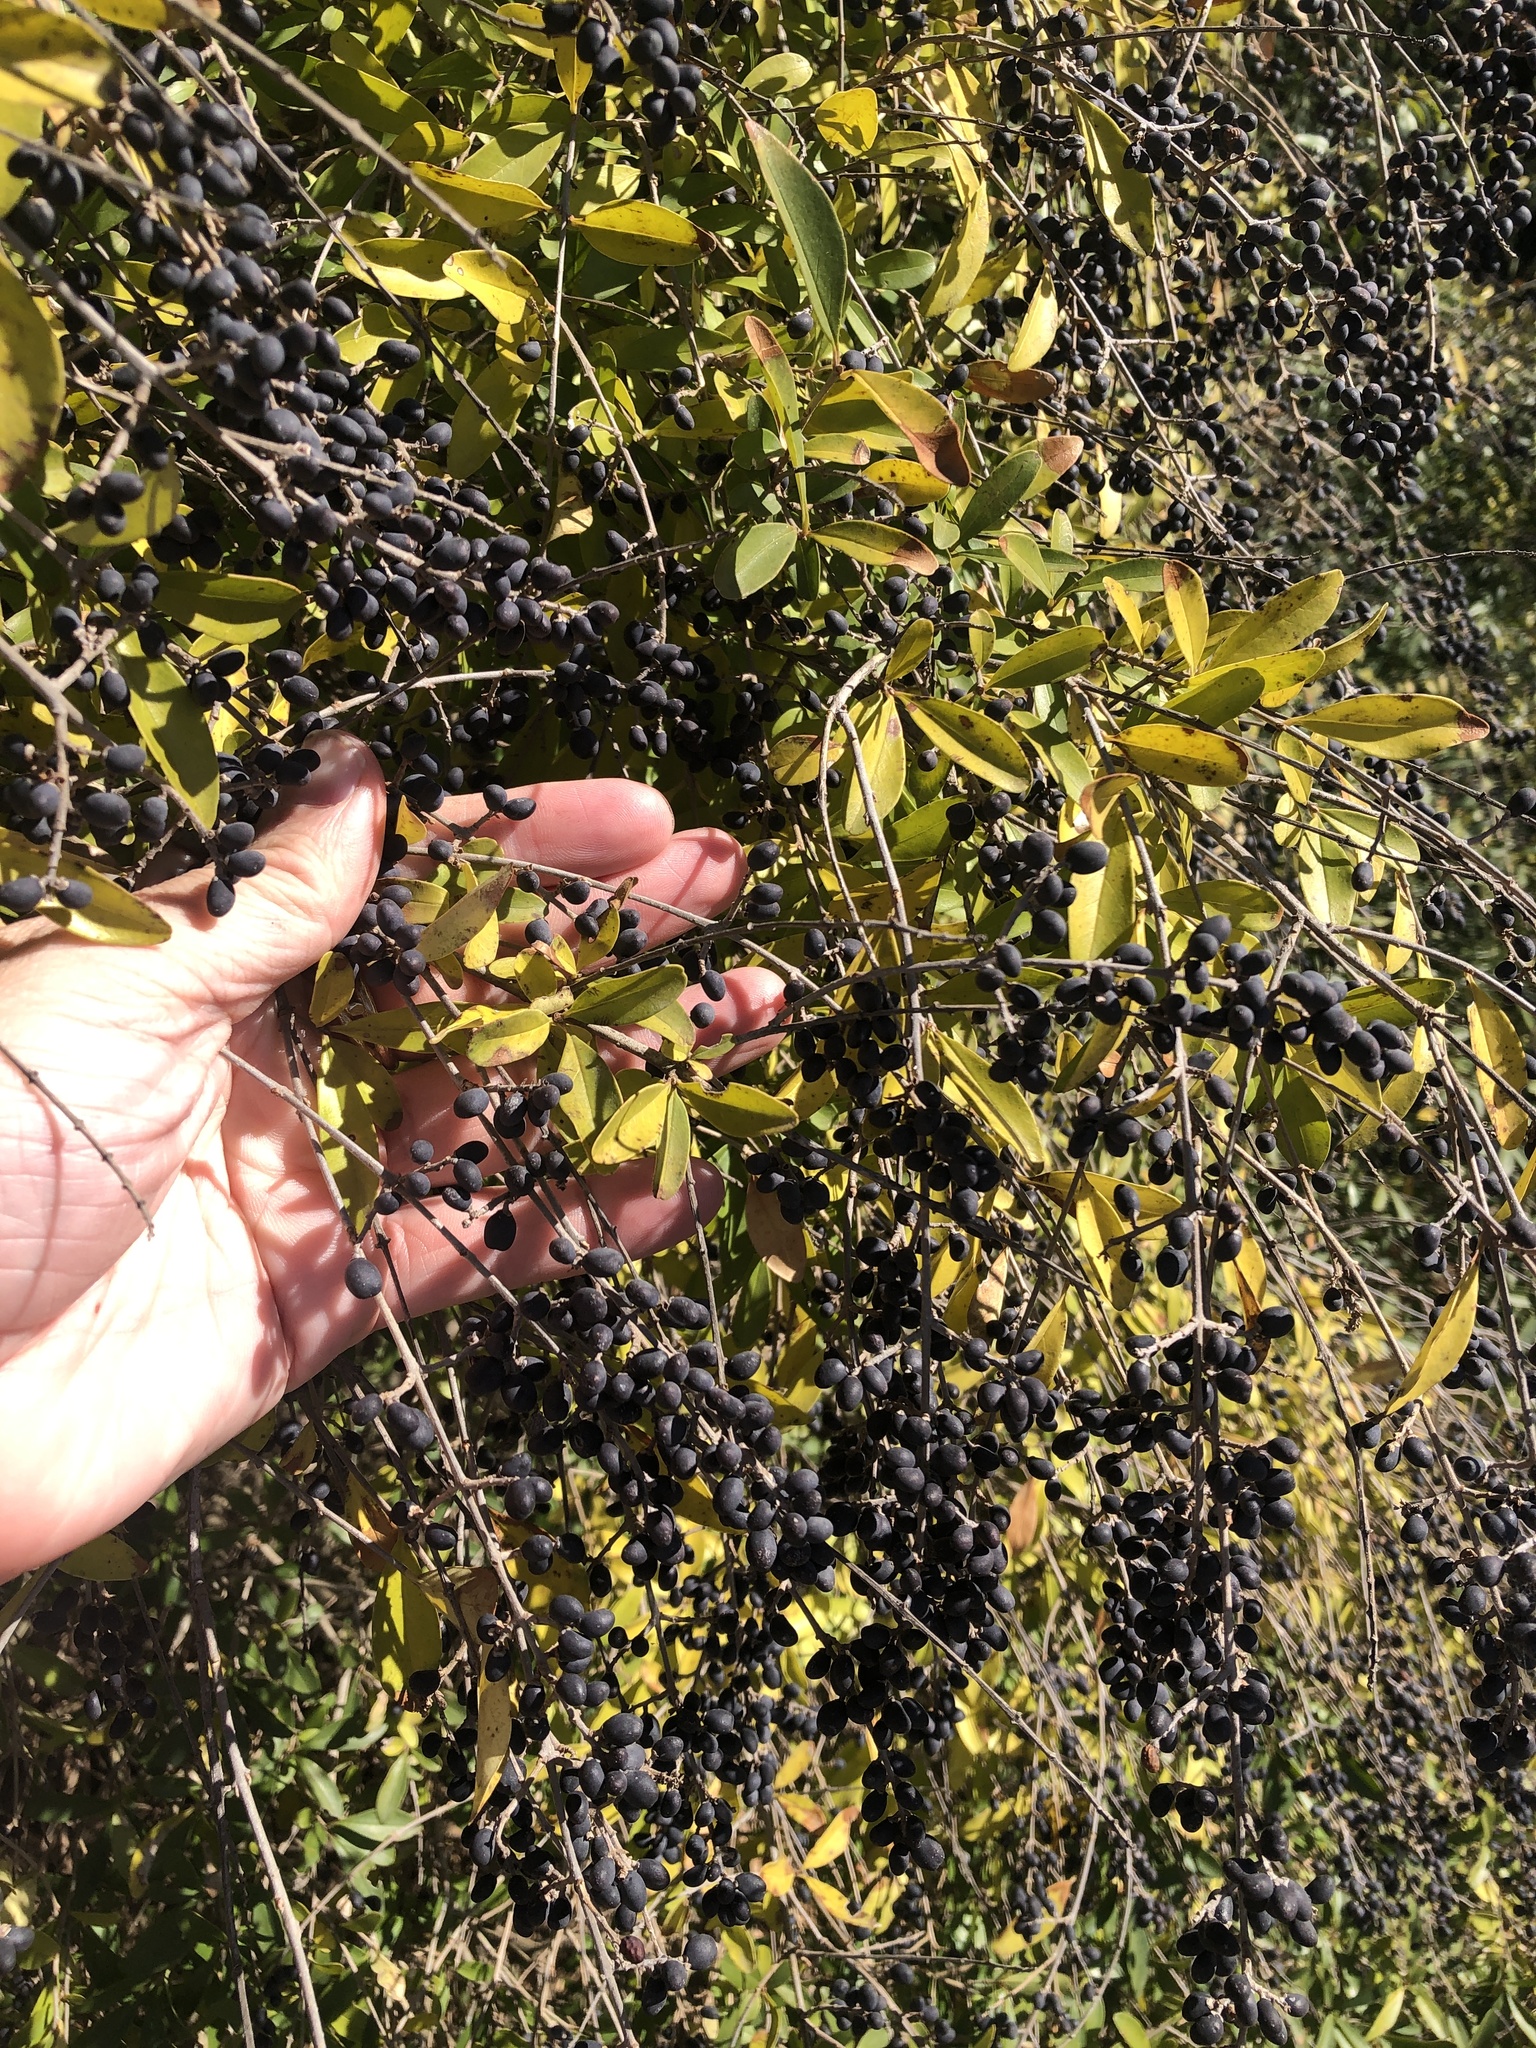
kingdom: Plantae
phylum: Tracheophyta
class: Magnoliopsida
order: Lamiales
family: Oleaceae
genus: Ligustrum
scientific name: Ligustrum quihoui
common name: Waxyleaf privet
